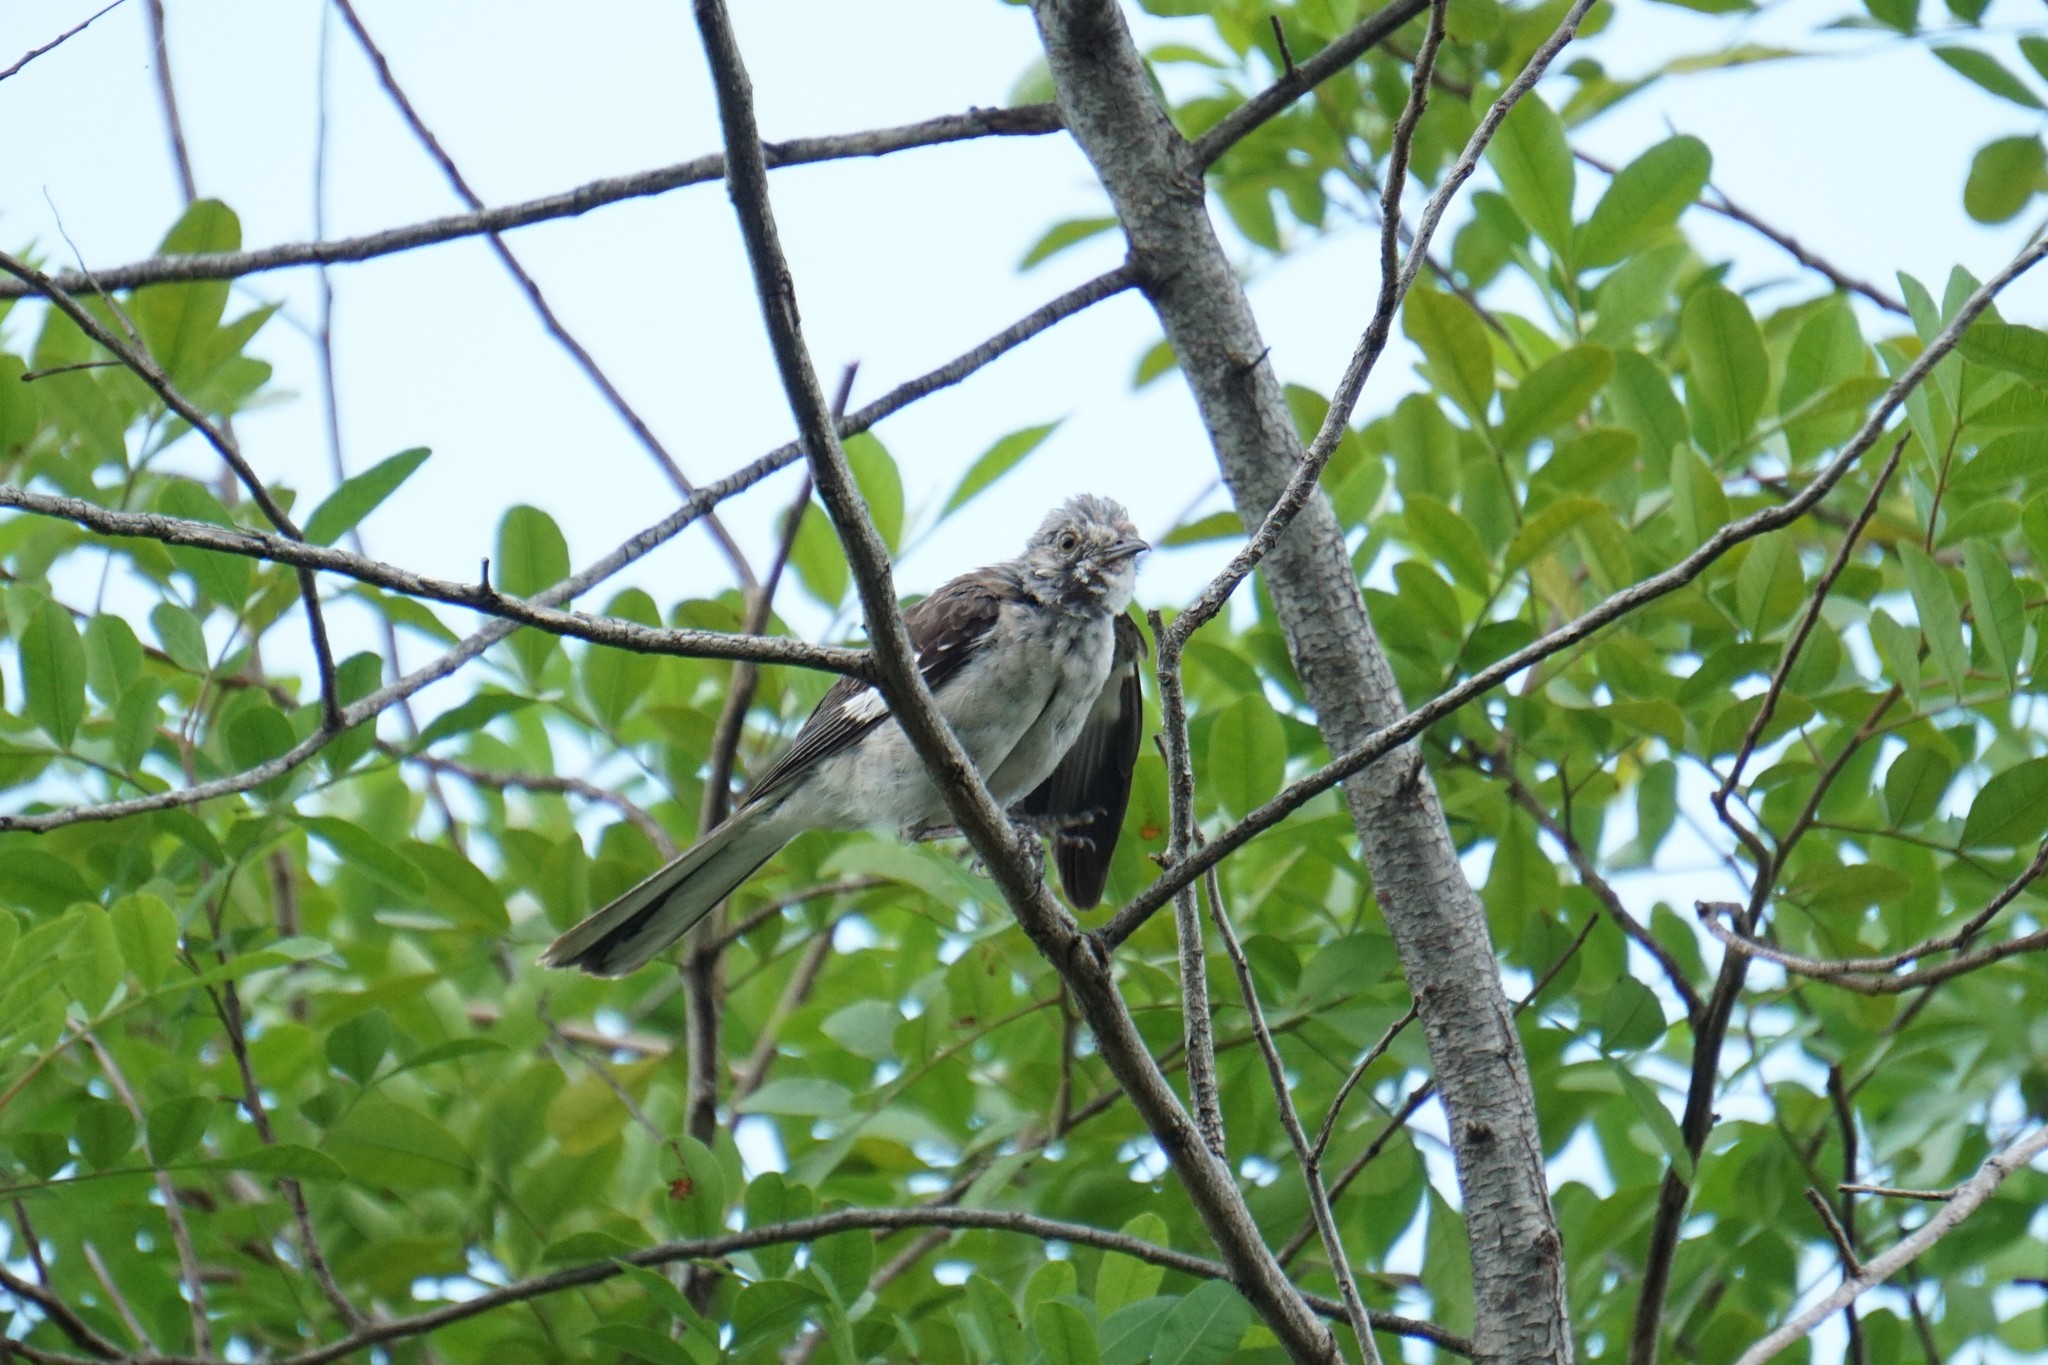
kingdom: Animalia
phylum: Chordata
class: Aves
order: Passeriformes
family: Mimidae
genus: Mimus
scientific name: Mimus polyglottos
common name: Northern mockingbird
